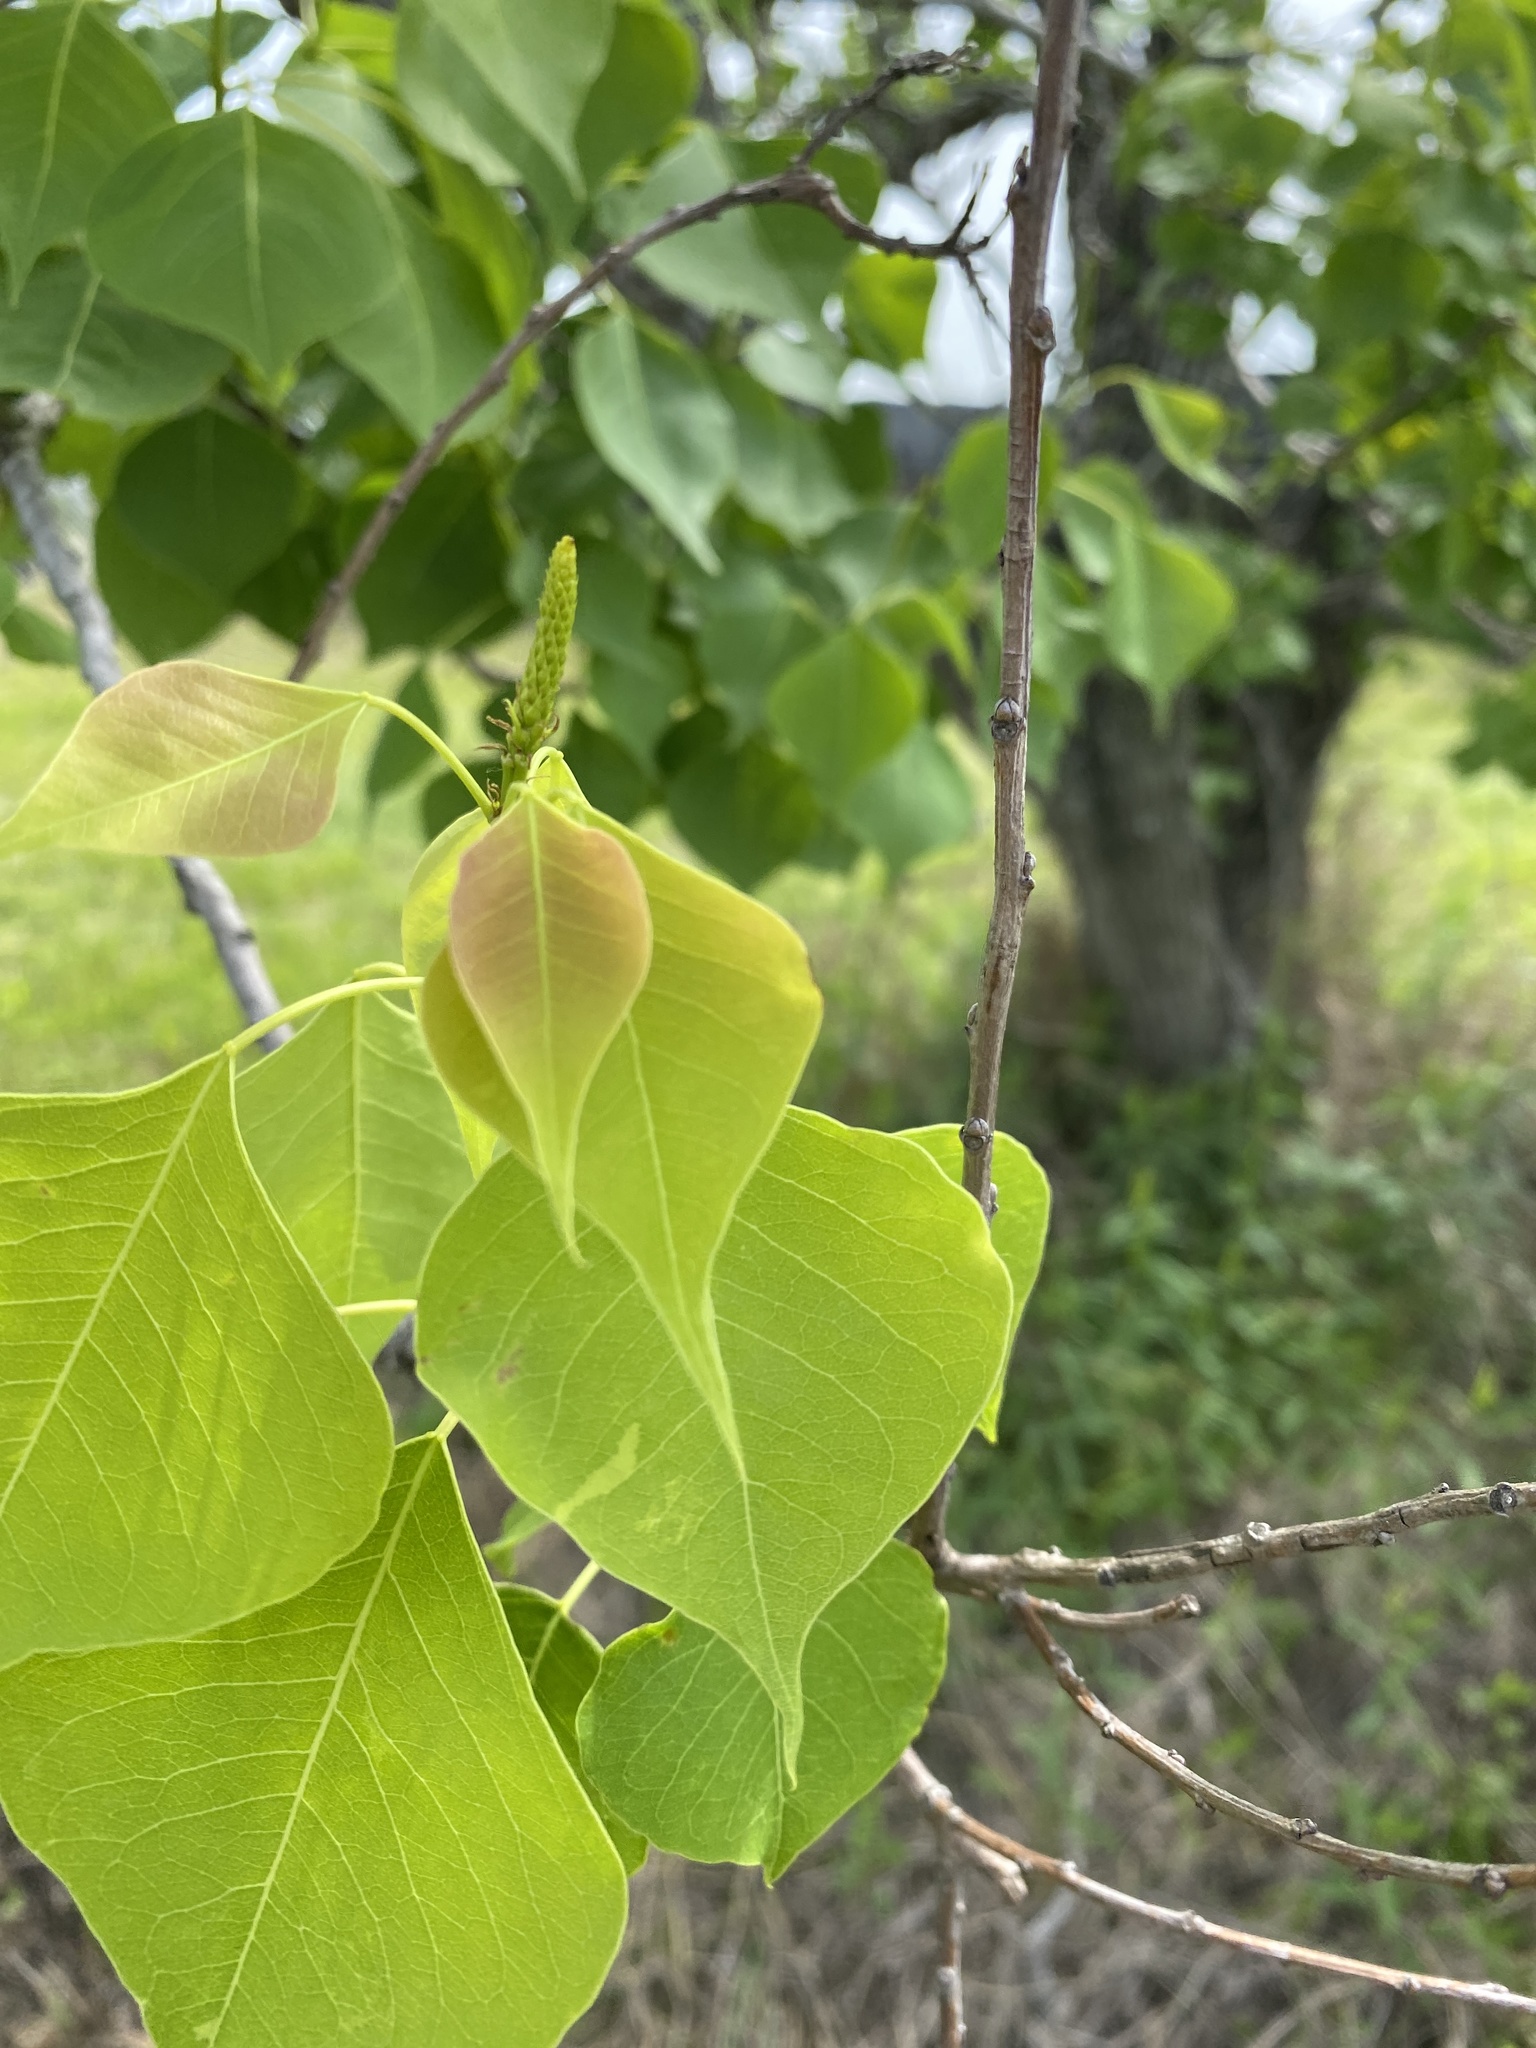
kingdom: Plantae
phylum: Tracheophyta
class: Magnoliopsida
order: Malpighiales
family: Euphorbiaceae
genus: Triadica
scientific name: Triadica sebifera
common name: Chinese tallow
